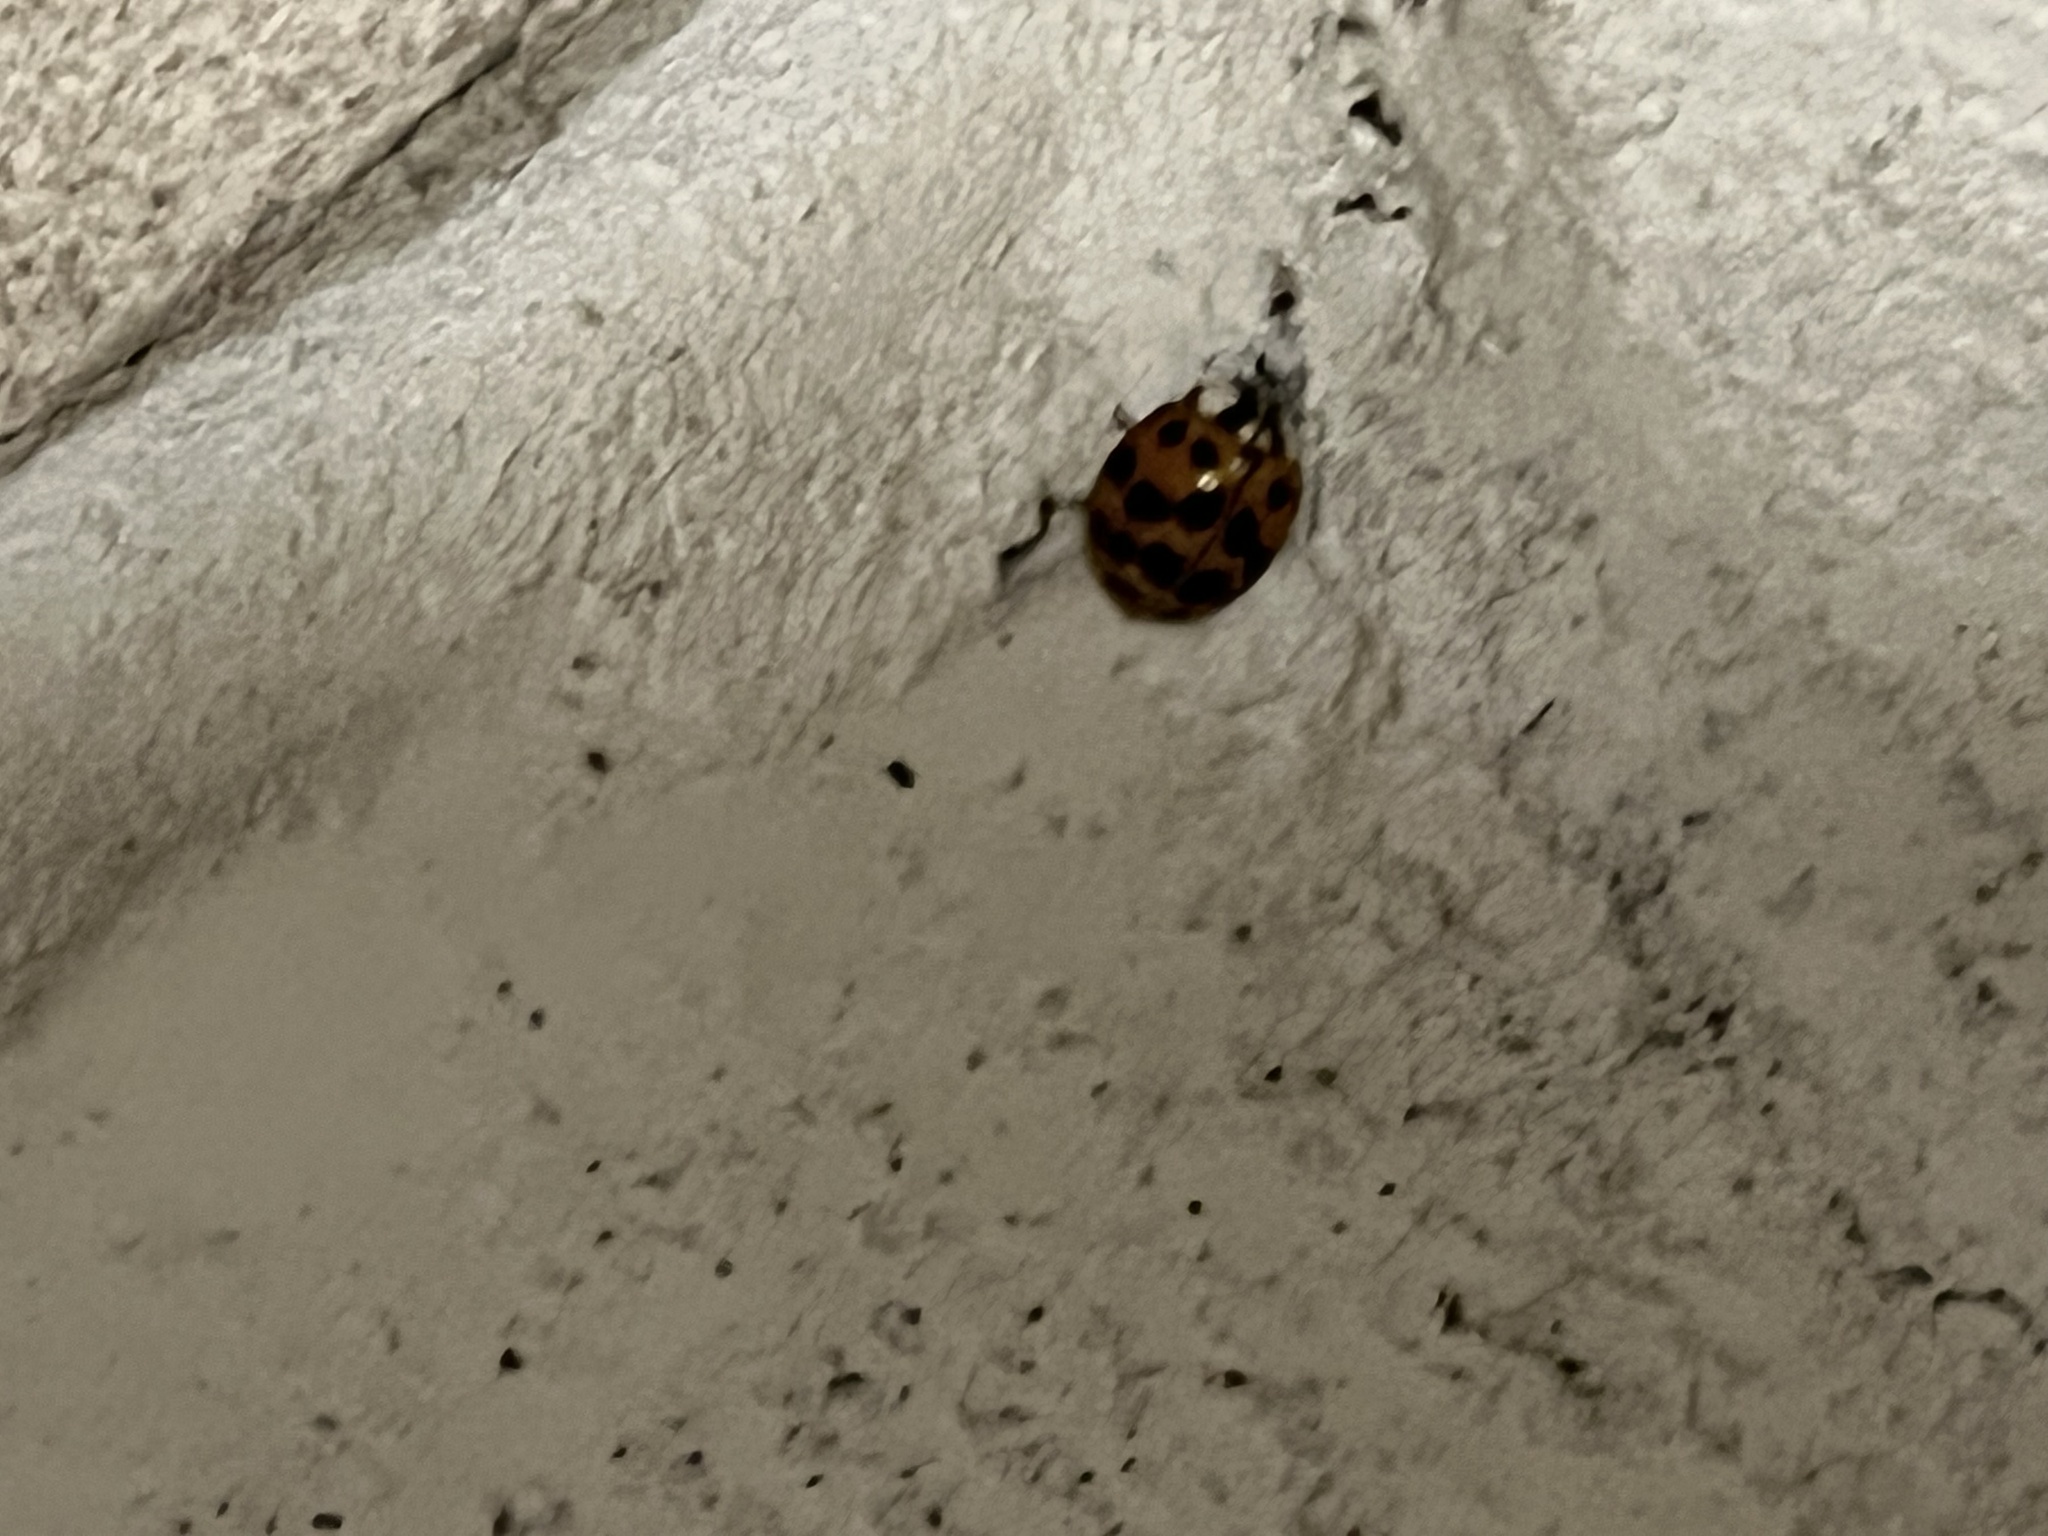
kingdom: Animalia
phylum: Arthropoda
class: Insecta
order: Coleoptera
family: Coccinellidae
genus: Harmonia
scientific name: Harmonia axyridis
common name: Harlequin ladybird
